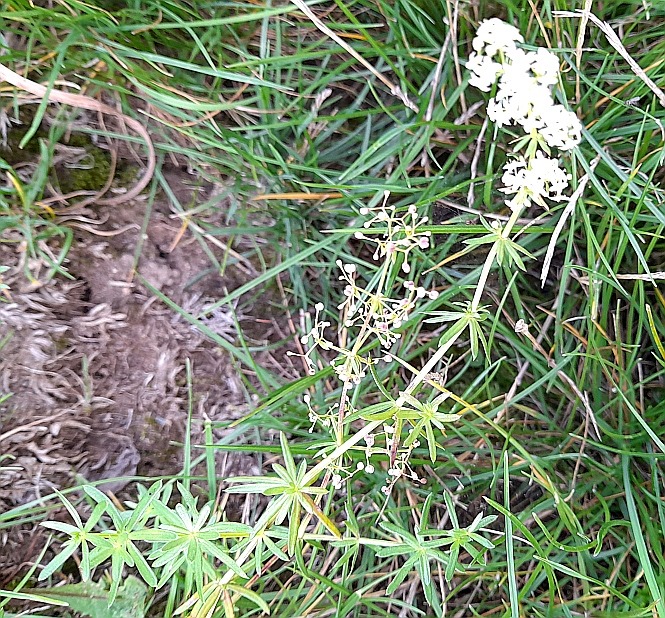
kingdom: Plantae
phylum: Tracheophyta
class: Magnoliopsida
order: Gentianales
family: Rubiaceae
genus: Galium
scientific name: Galium mollugo
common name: Hedge bedstraw
